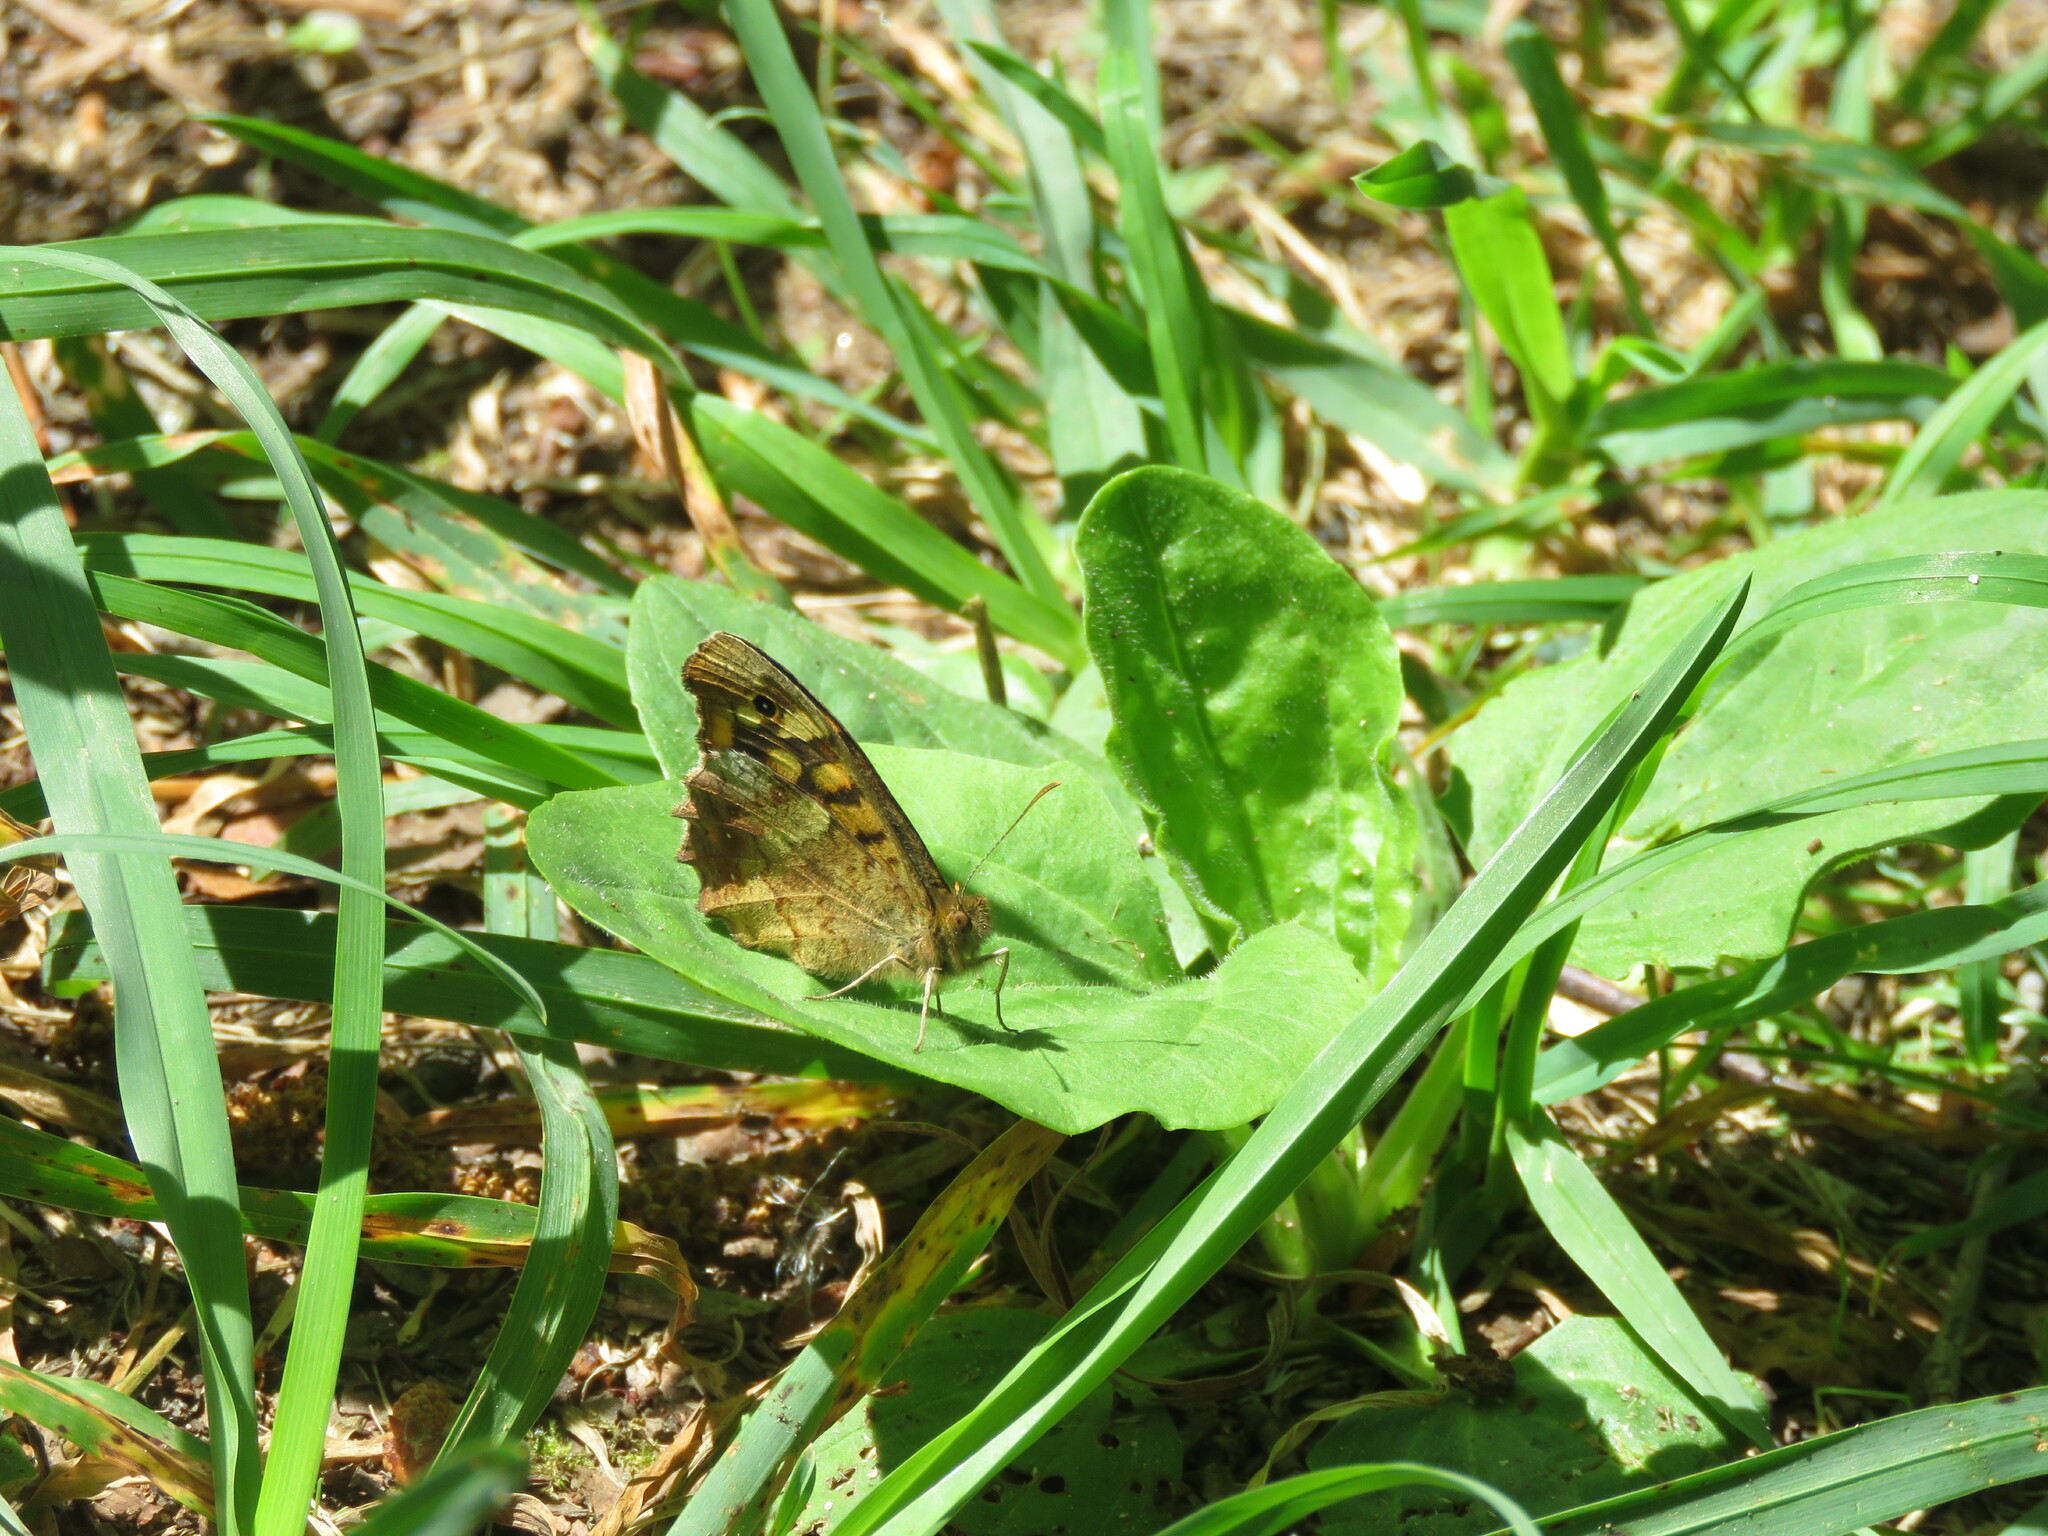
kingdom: Animalia
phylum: Arthropoda
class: Insecta
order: Lepidoptera
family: Nymphalidae
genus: Pararge
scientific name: Pararge aegeria
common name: Speckled wood
